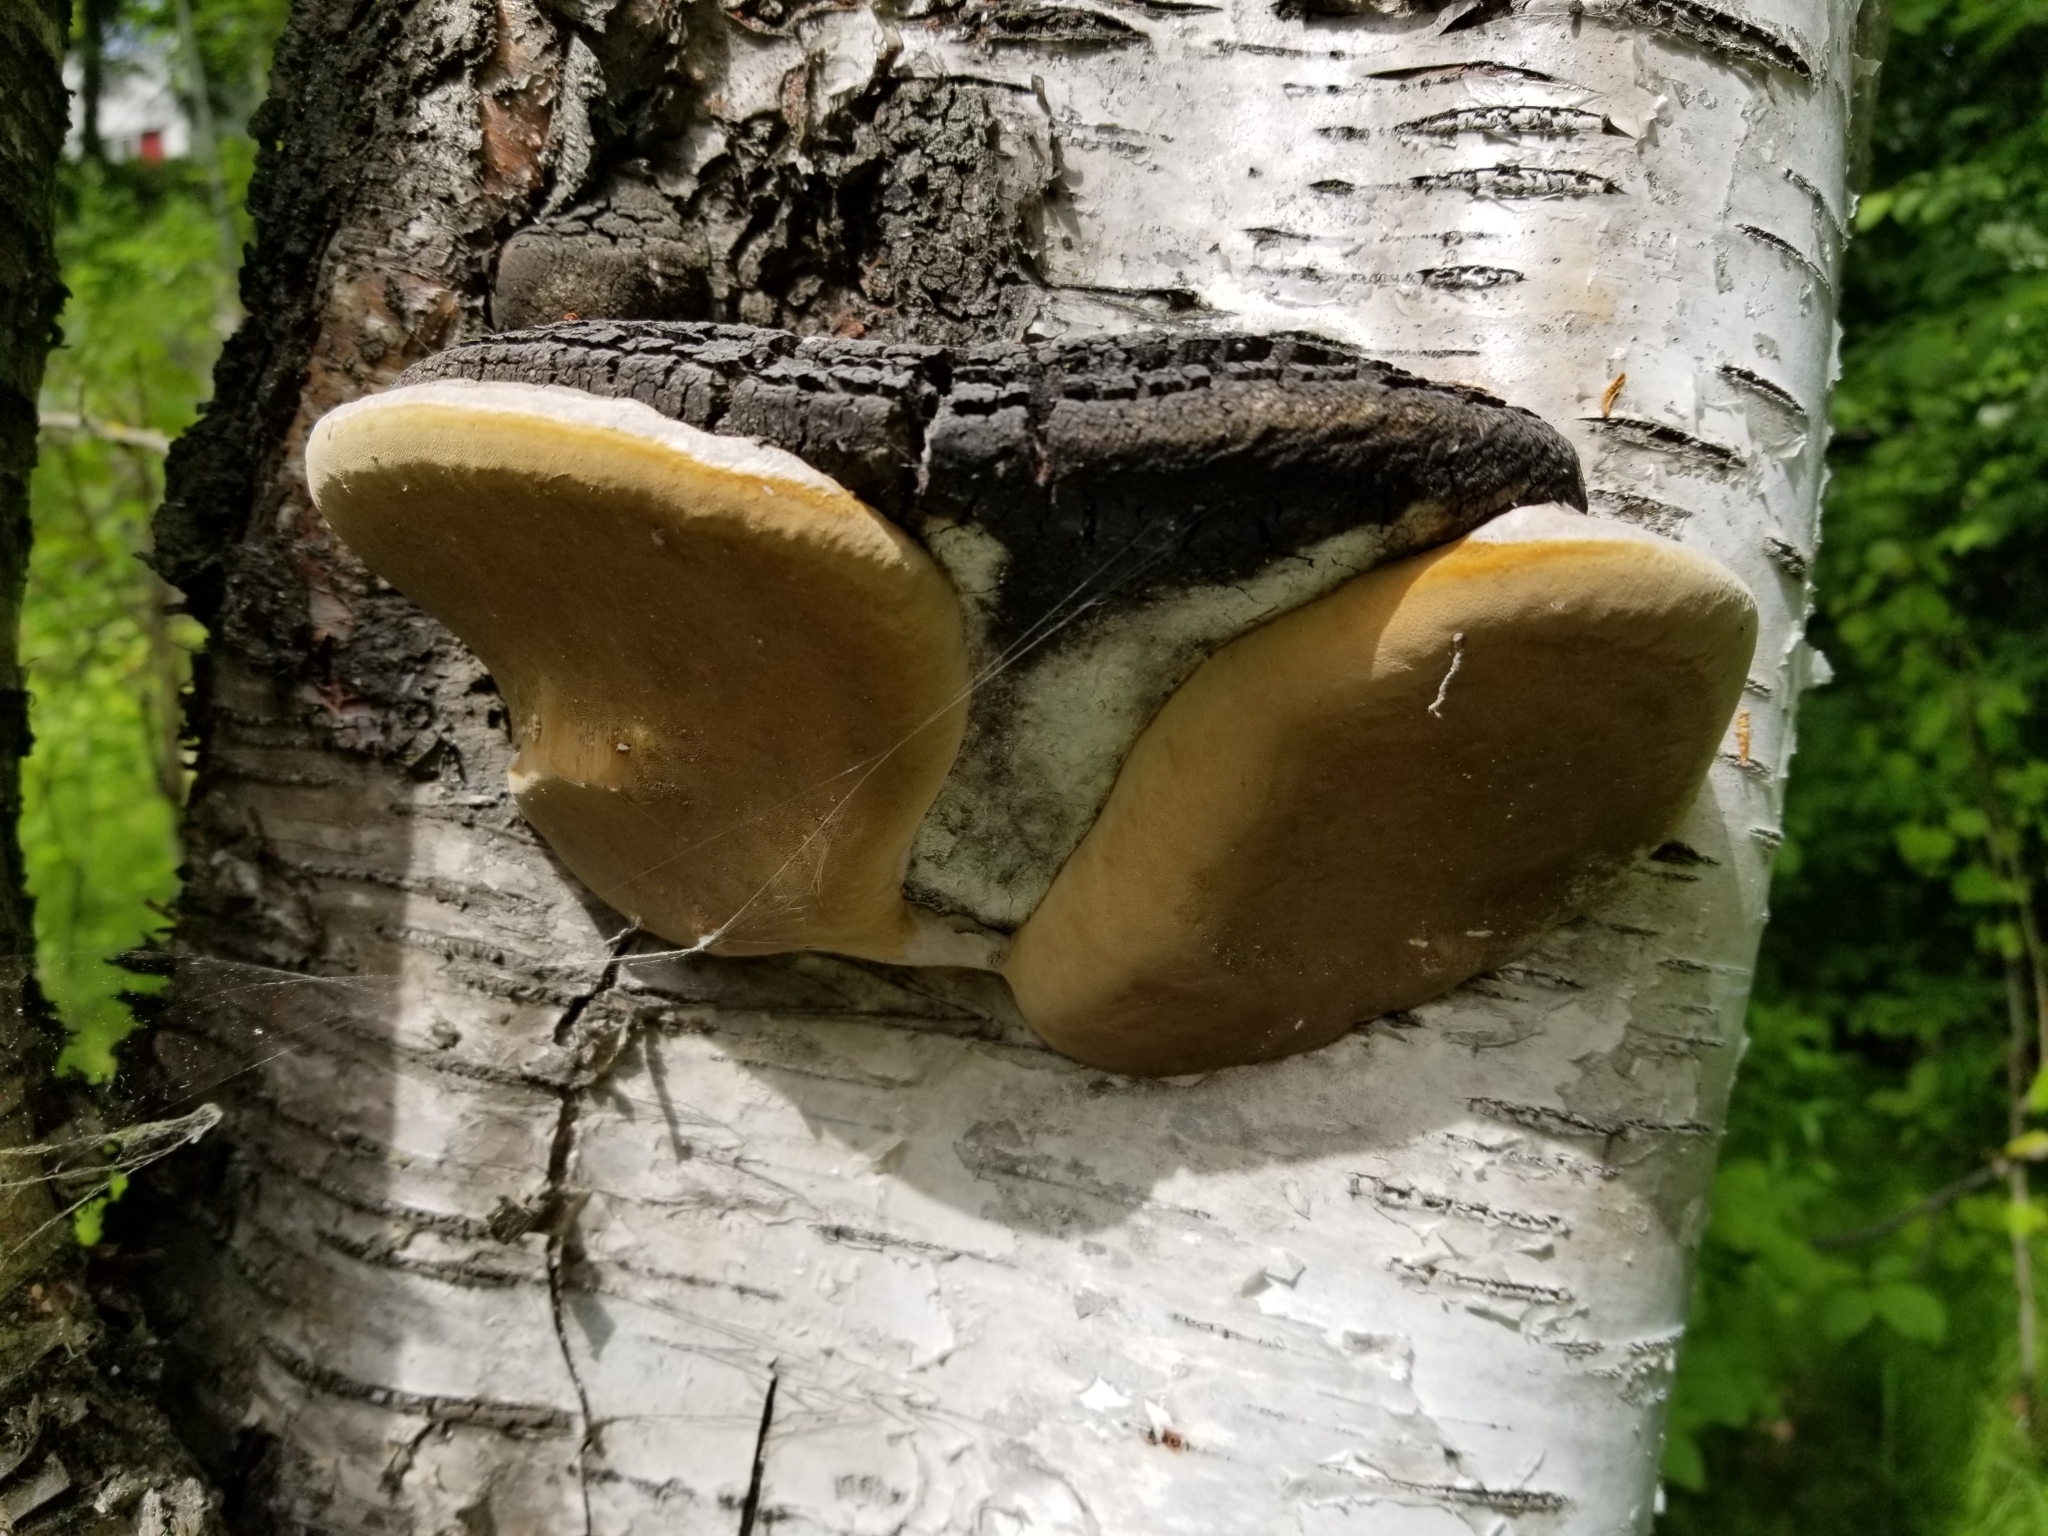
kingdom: Fungi
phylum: Basidiomycota
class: Agaricomycetes
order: Hymenochaetales
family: Hymenochaetaceae
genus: Phellinus
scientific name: Phellinus igniarius
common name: Willow bracket
